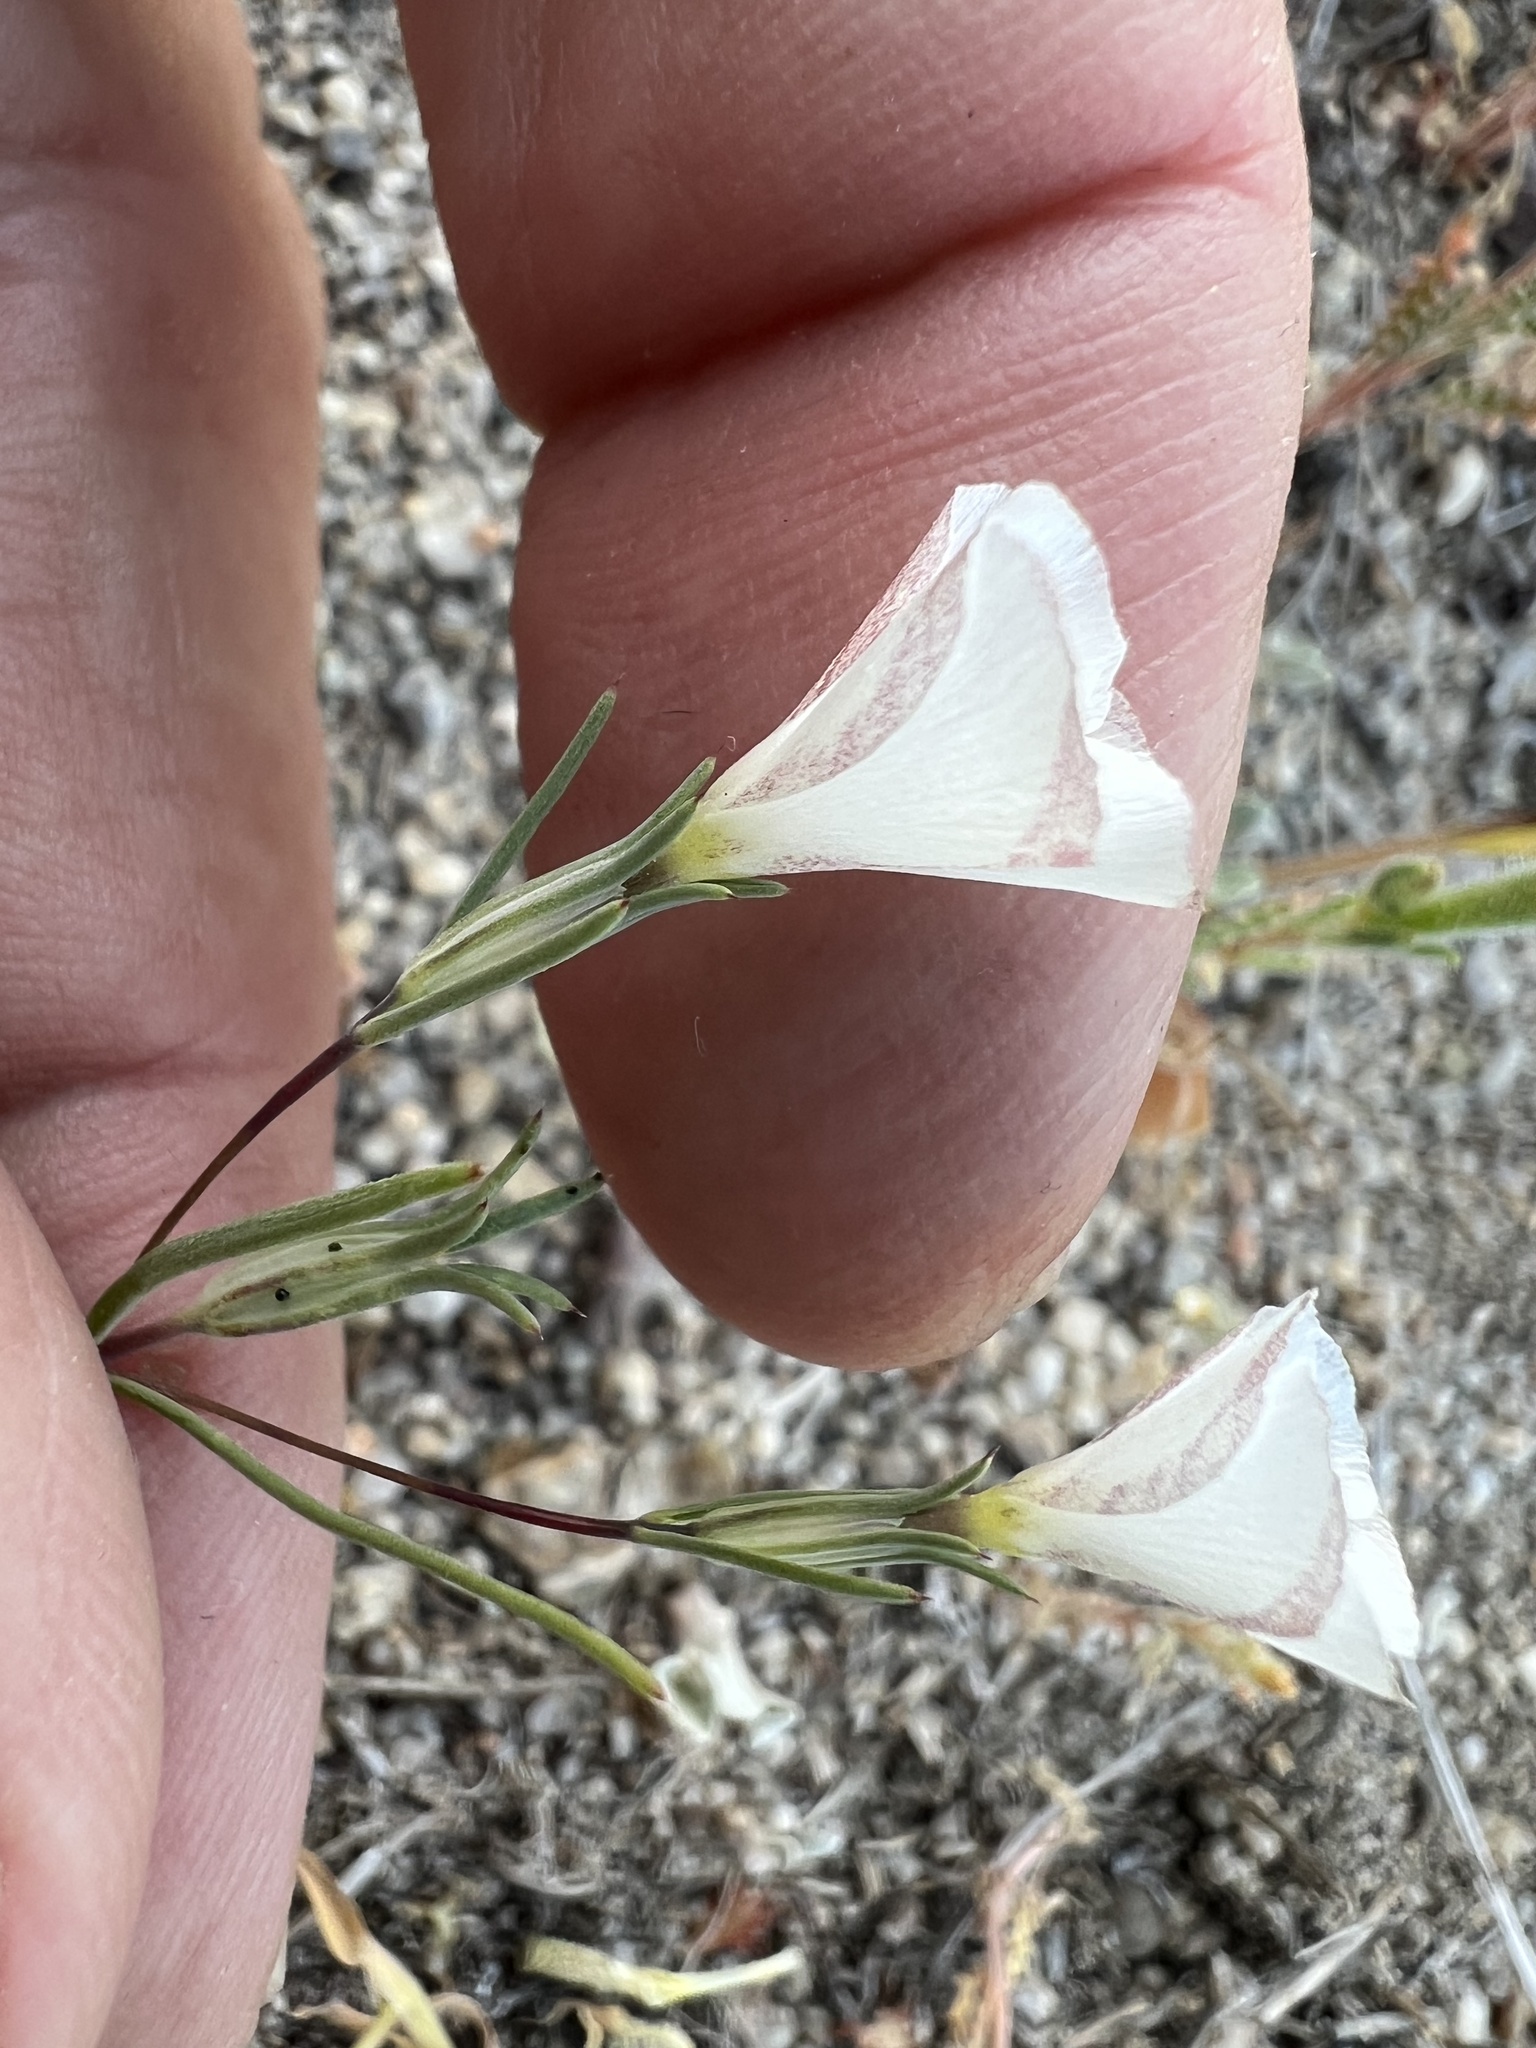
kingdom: Plantae
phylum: Tracheophyta
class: Magnoliopsida
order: Ericales
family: Polemoniaceae
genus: Linanthus
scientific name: Linanthus dichotomus
